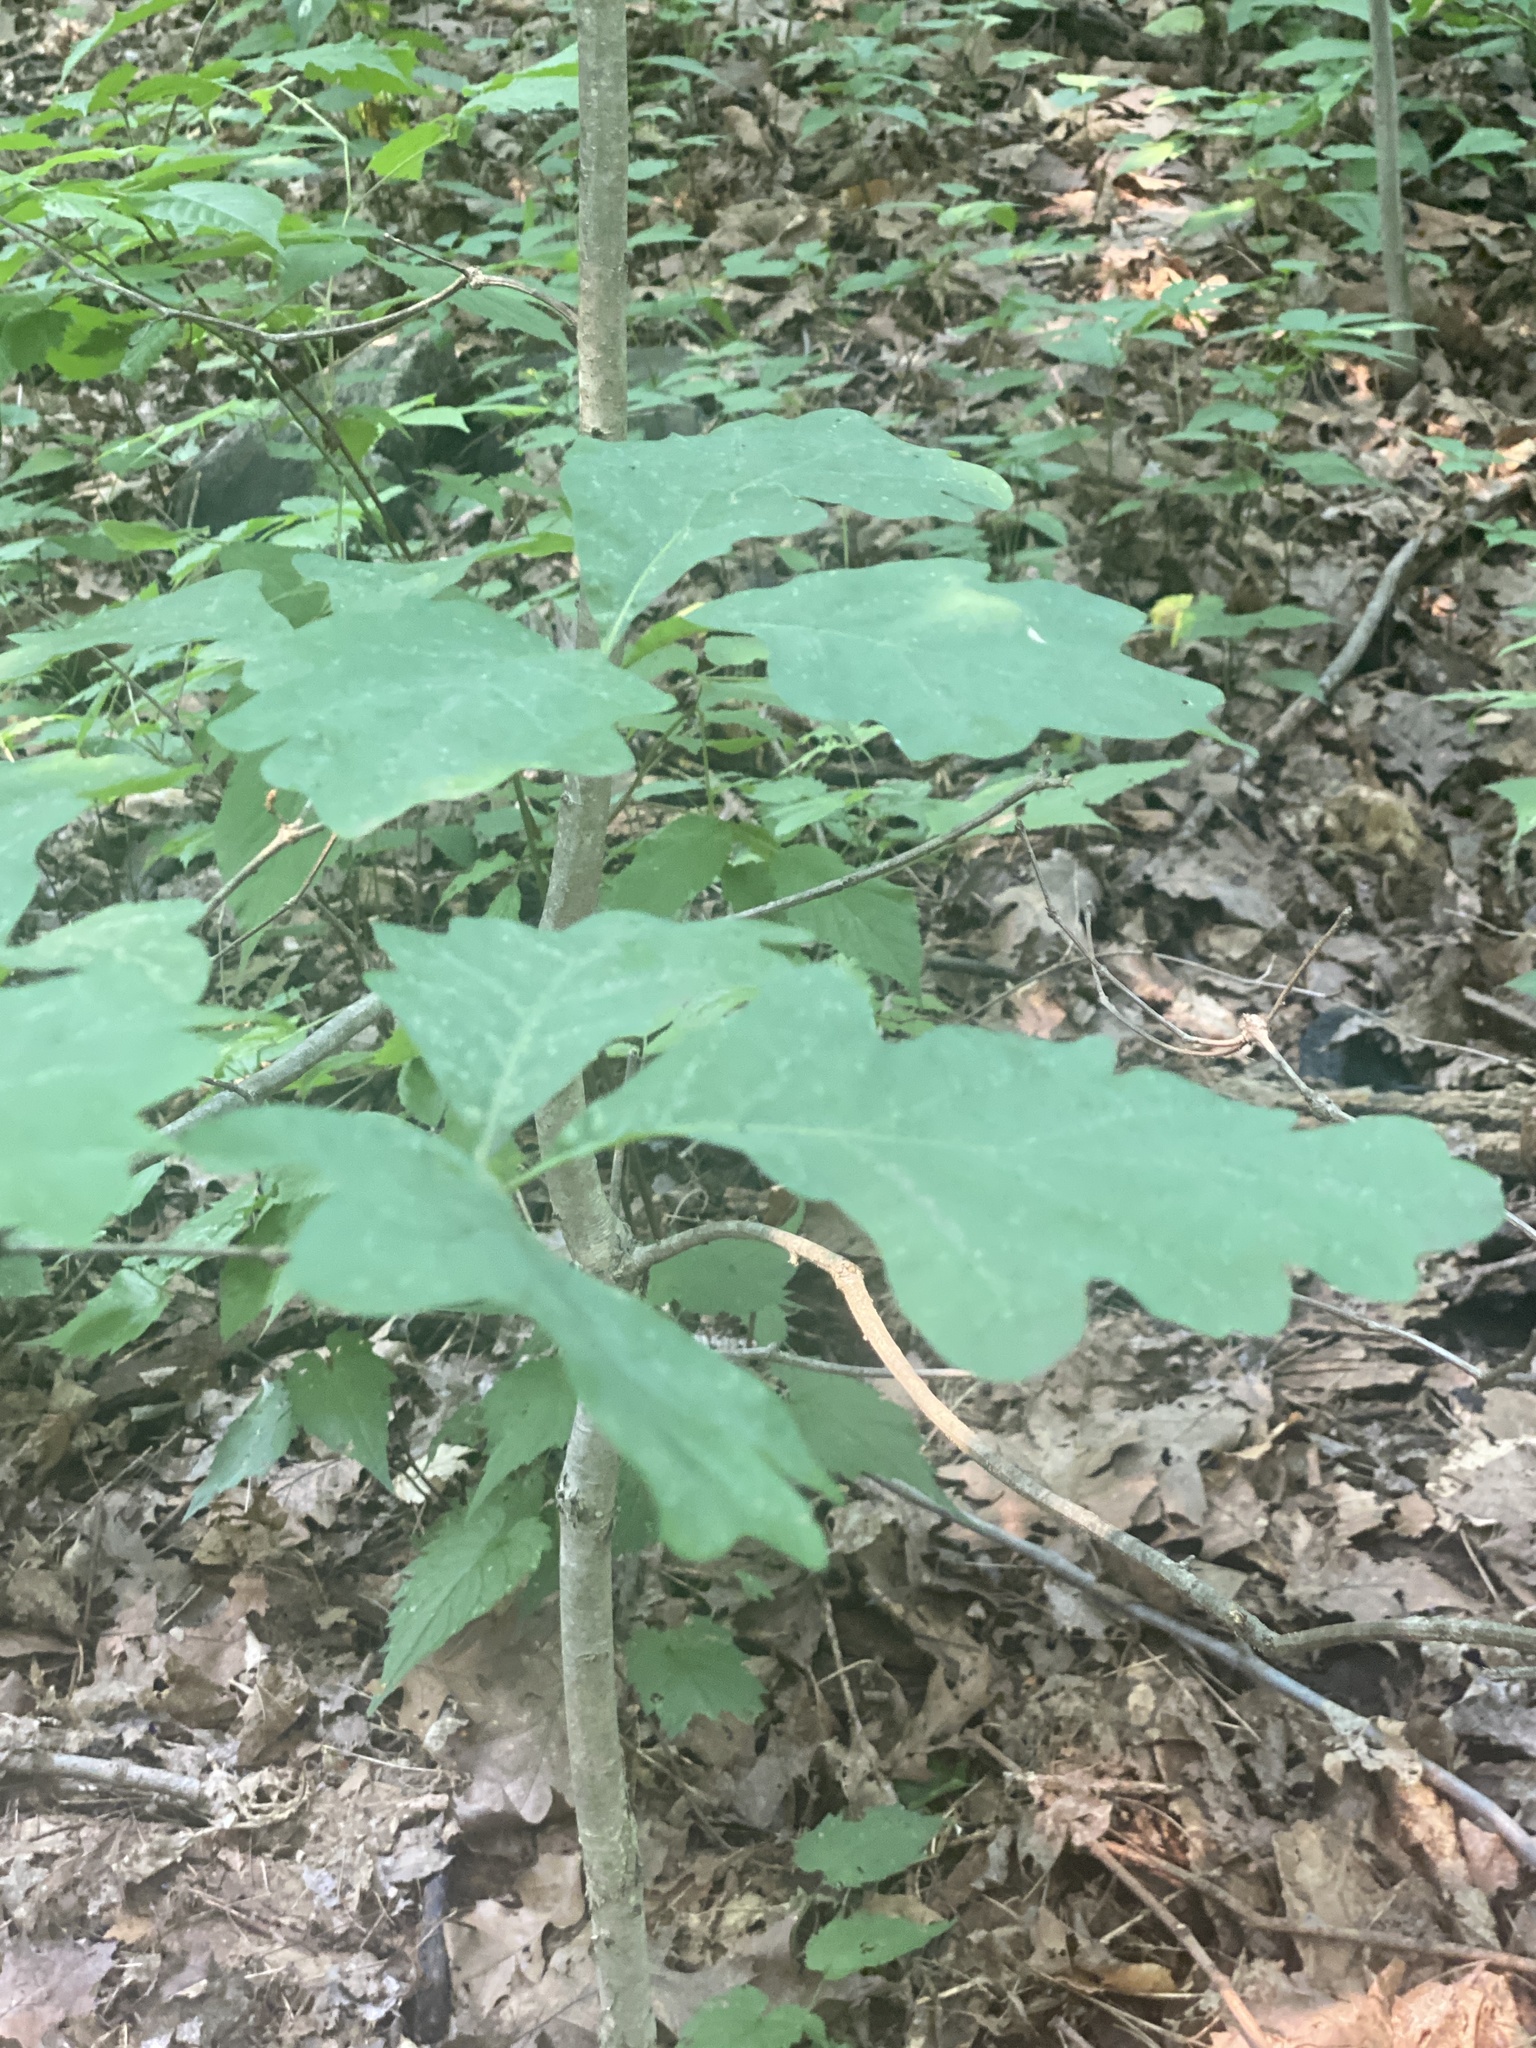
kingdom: Plantae
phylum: Tracheophyta
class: Magnoliopsida
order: Fagales
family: Fagaceae
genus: Quercus
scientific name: Quercus alba
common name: White oak
